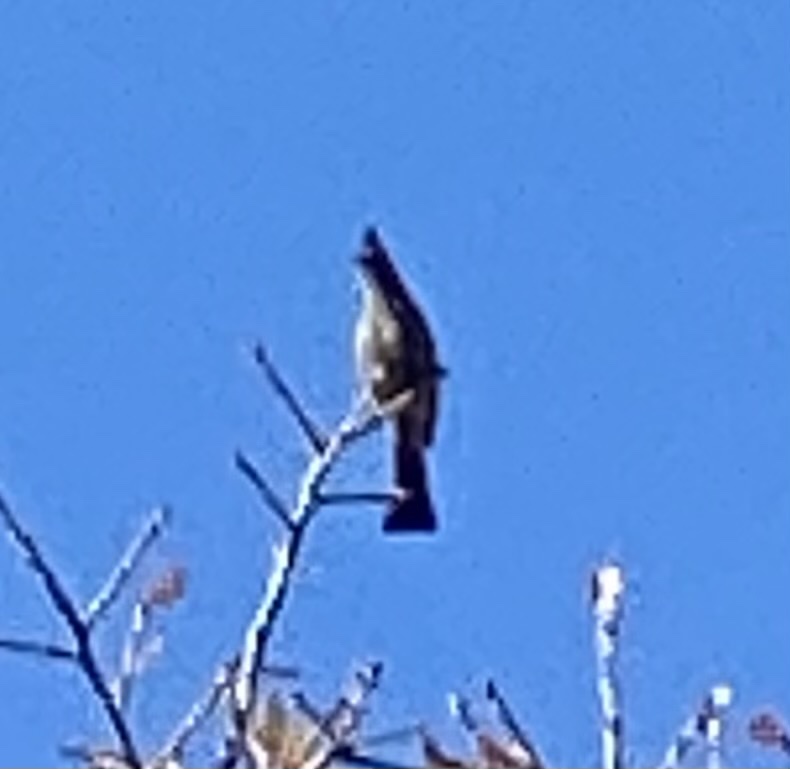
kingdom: Animalia
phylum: Chordata
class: Aves
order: Passeriformes
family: Ptilogonatidae
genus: Phainopepla
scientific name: Phainopepla nitens
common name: Phainopepla
